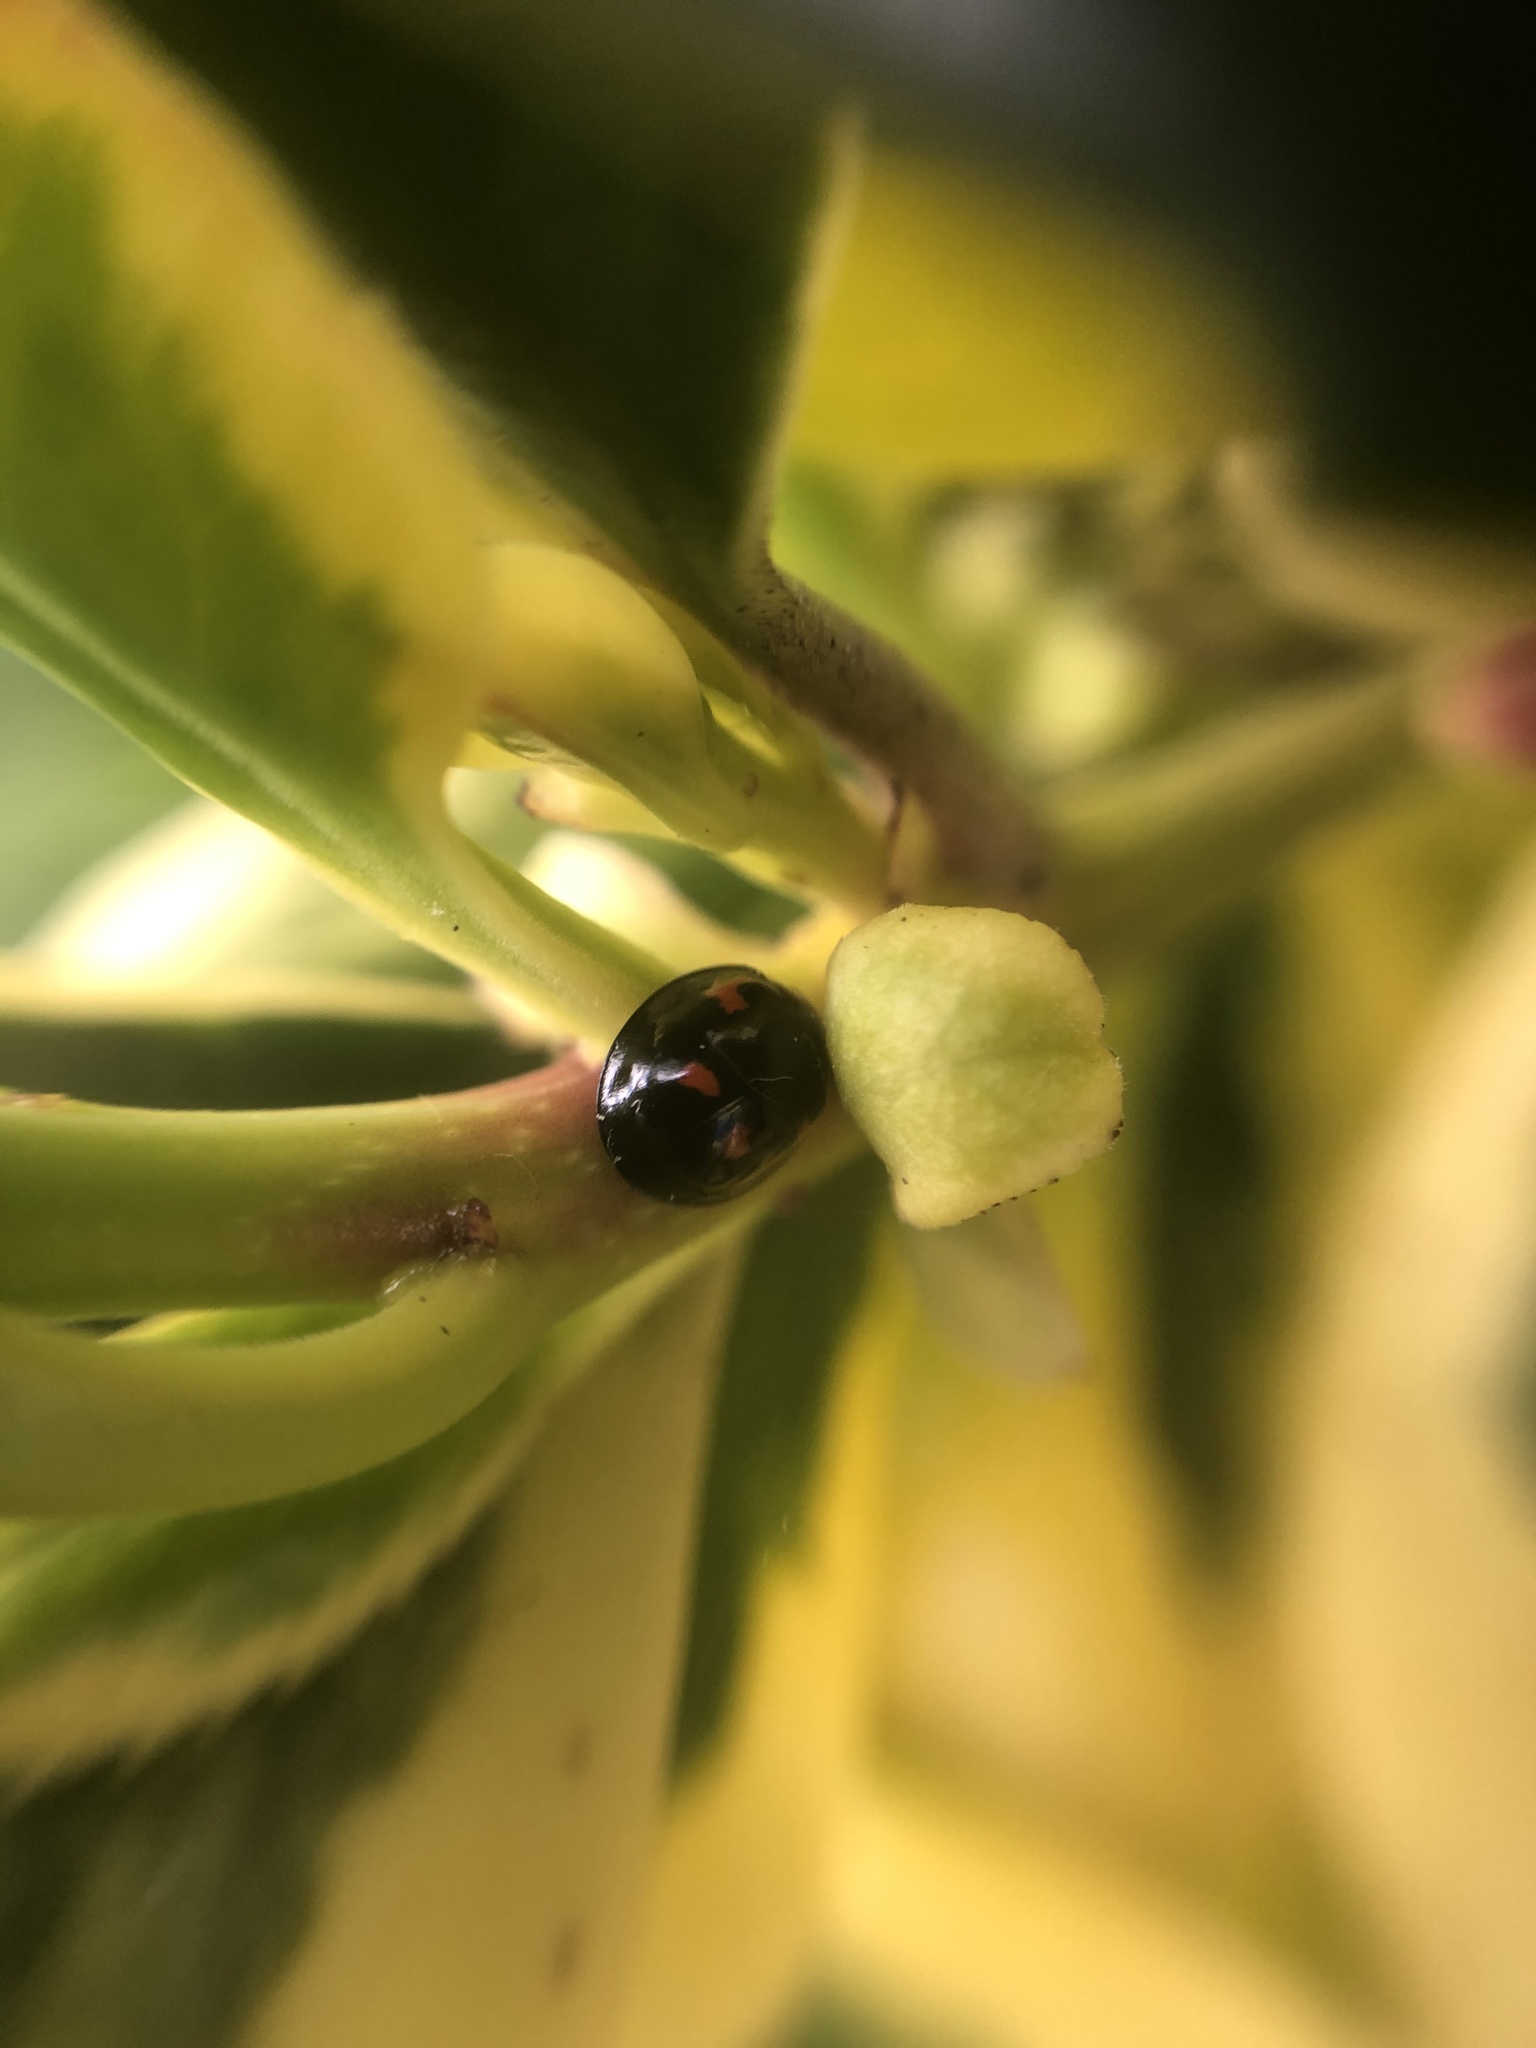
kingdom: Animalia
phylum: Arthropoda
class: Insecta
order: Coleoptera
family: Coccinellidae
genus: Brumus
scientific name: Brumus quadripustulatus
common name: Ladybird beetle
